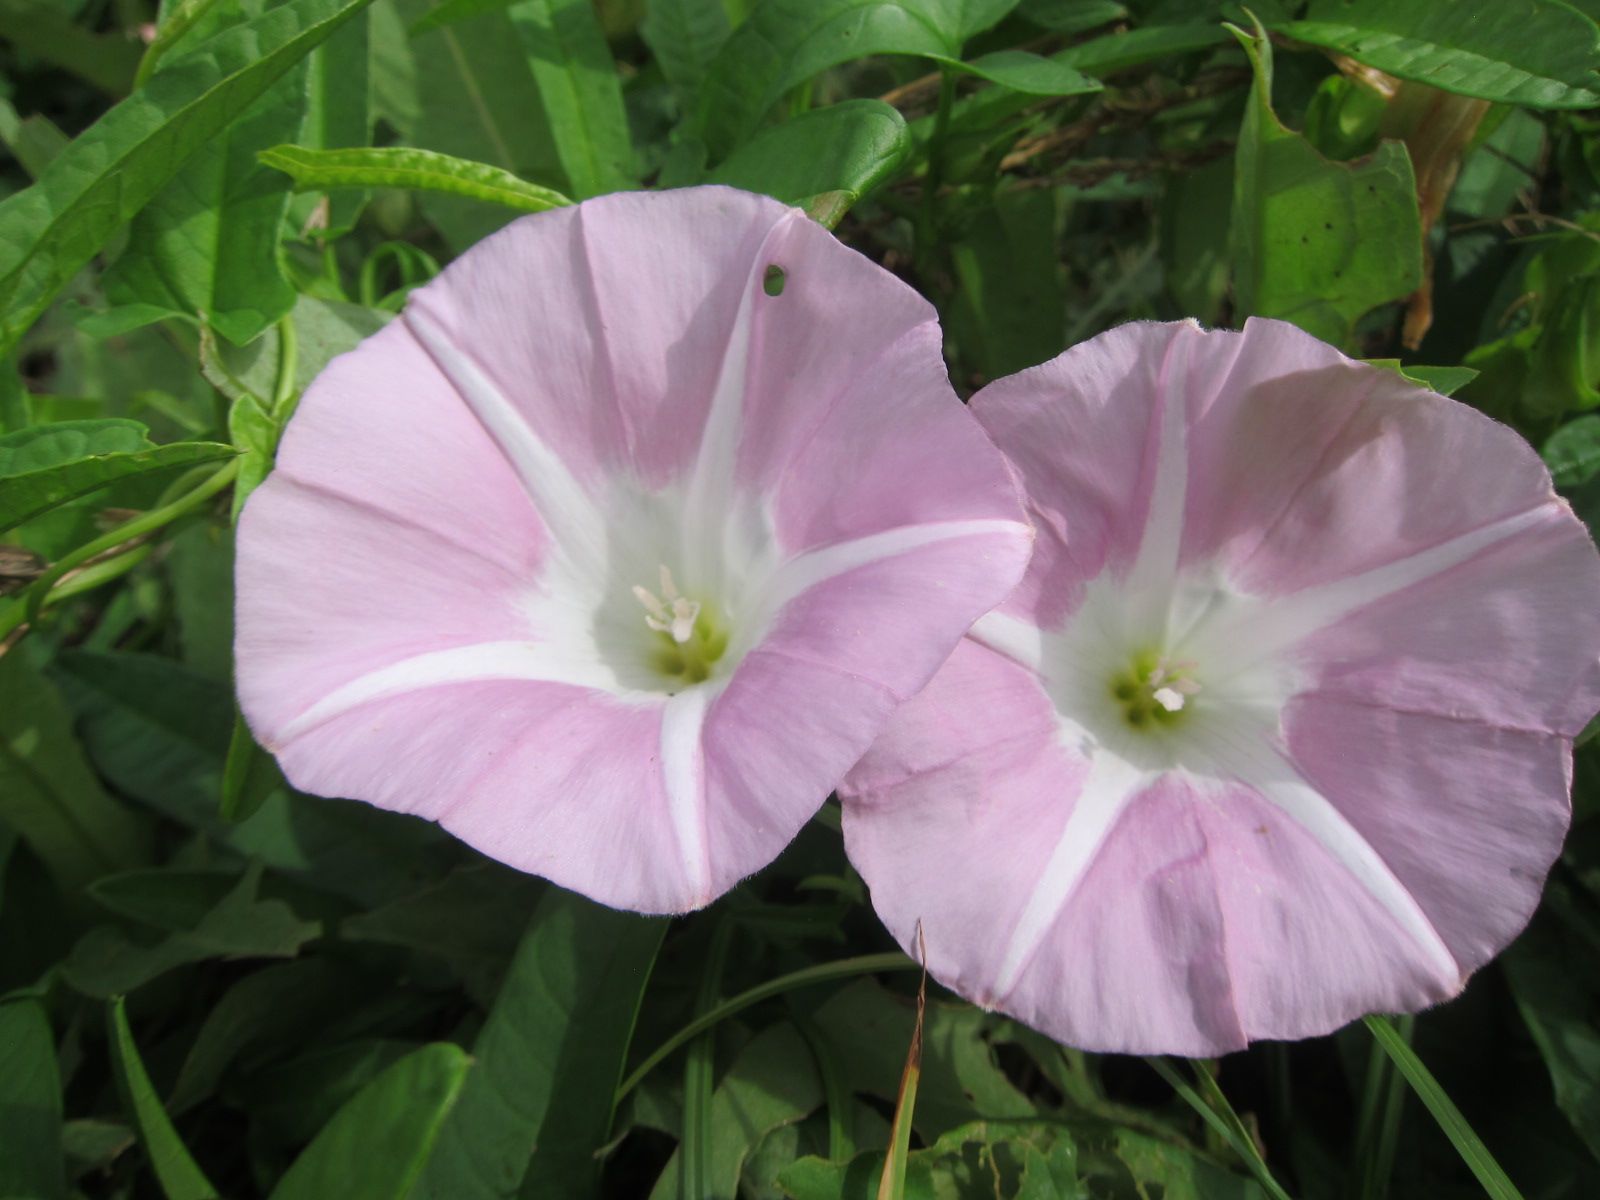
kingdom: Plantae
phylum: Tracheophyta
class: Magnoliopsida
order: Solanales
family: Convolvulaceae
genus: Calystegia
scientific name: Calystegia sepium
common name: Hedge bindweed
